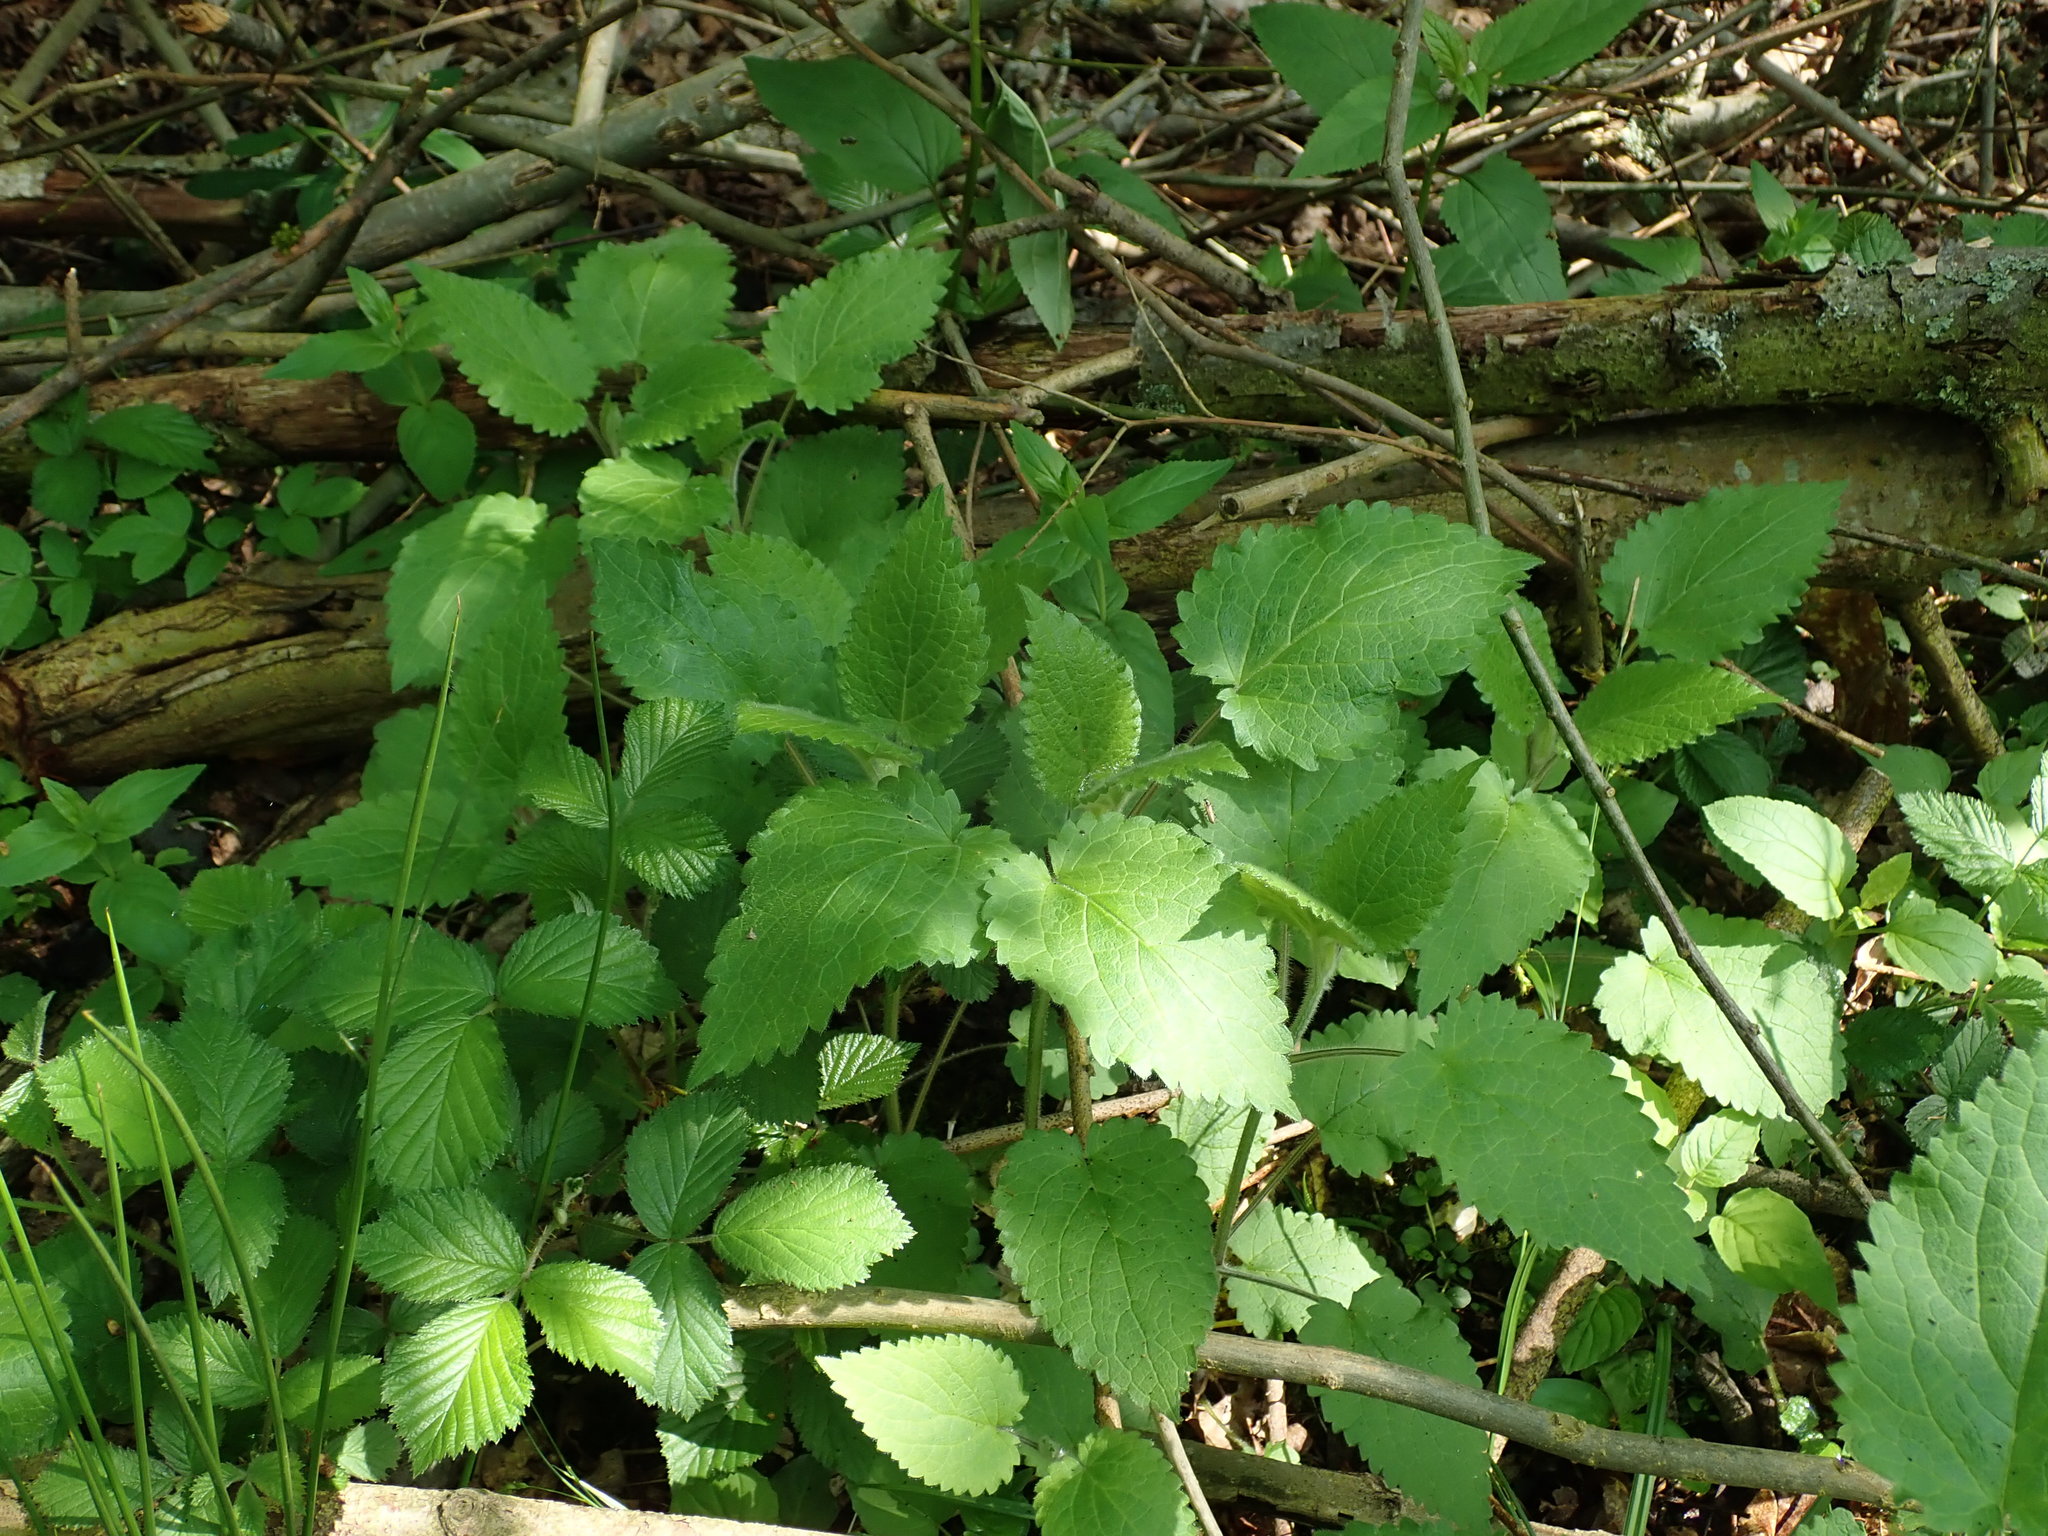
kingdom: Plantae
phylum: Tracheophyta
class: Magnoliopsida
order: Lamiales
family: Lamiaceae
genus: Stachys
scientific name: Stachys sylvatica
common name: Hedge woundwort
